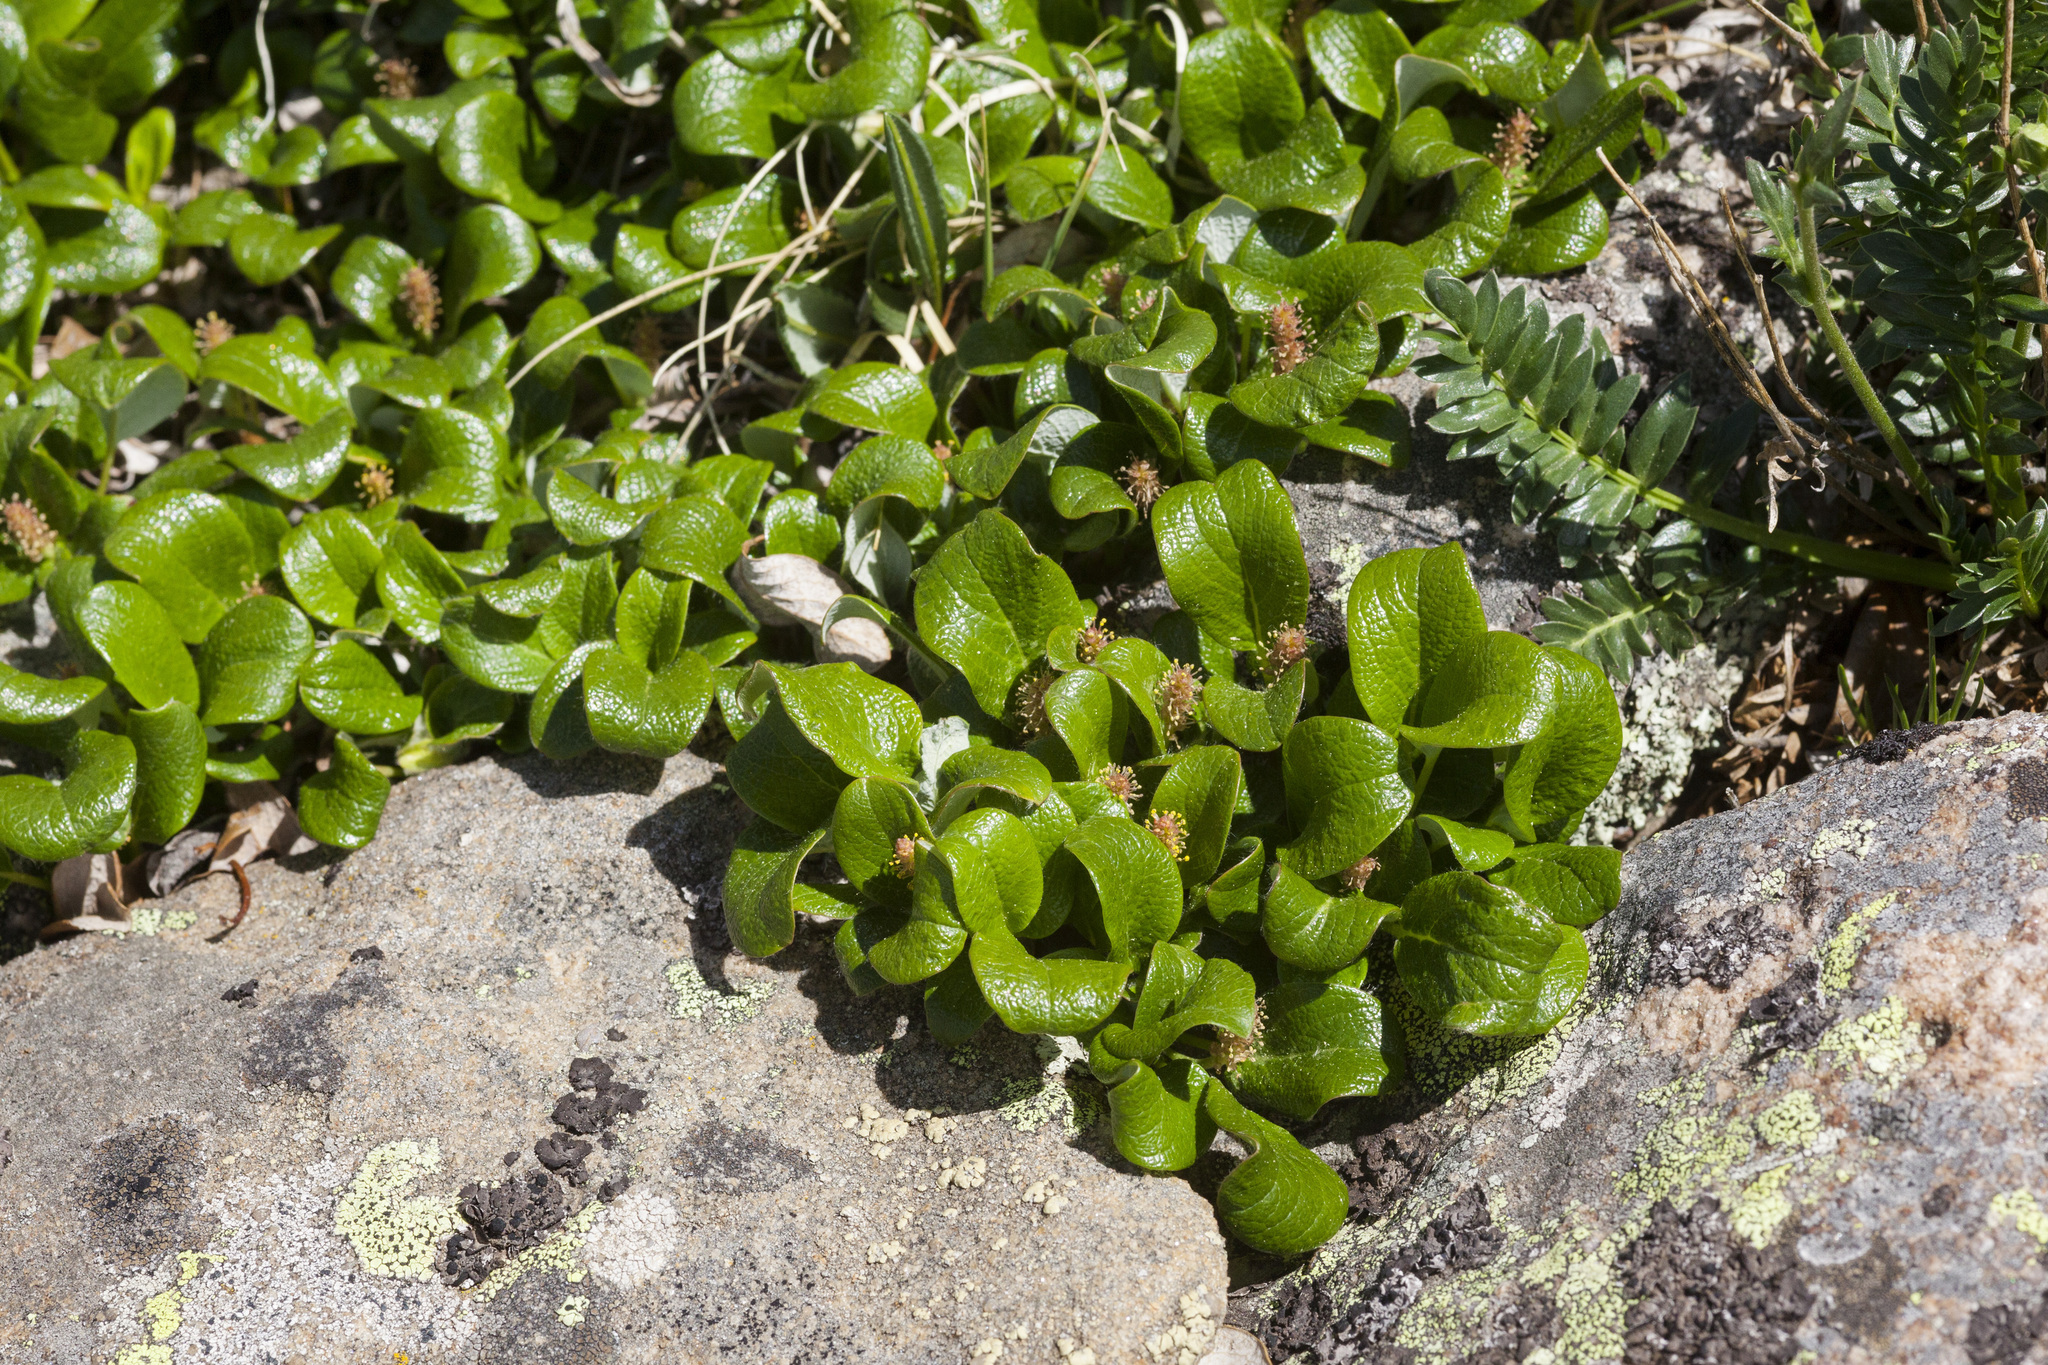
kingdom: Plantae
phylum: Tracheophyta
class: Magnoliopsida
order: Malpighiales
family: Salicaceae
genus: Salix
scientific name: Salix nivalis
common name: Dwarf snow willow
